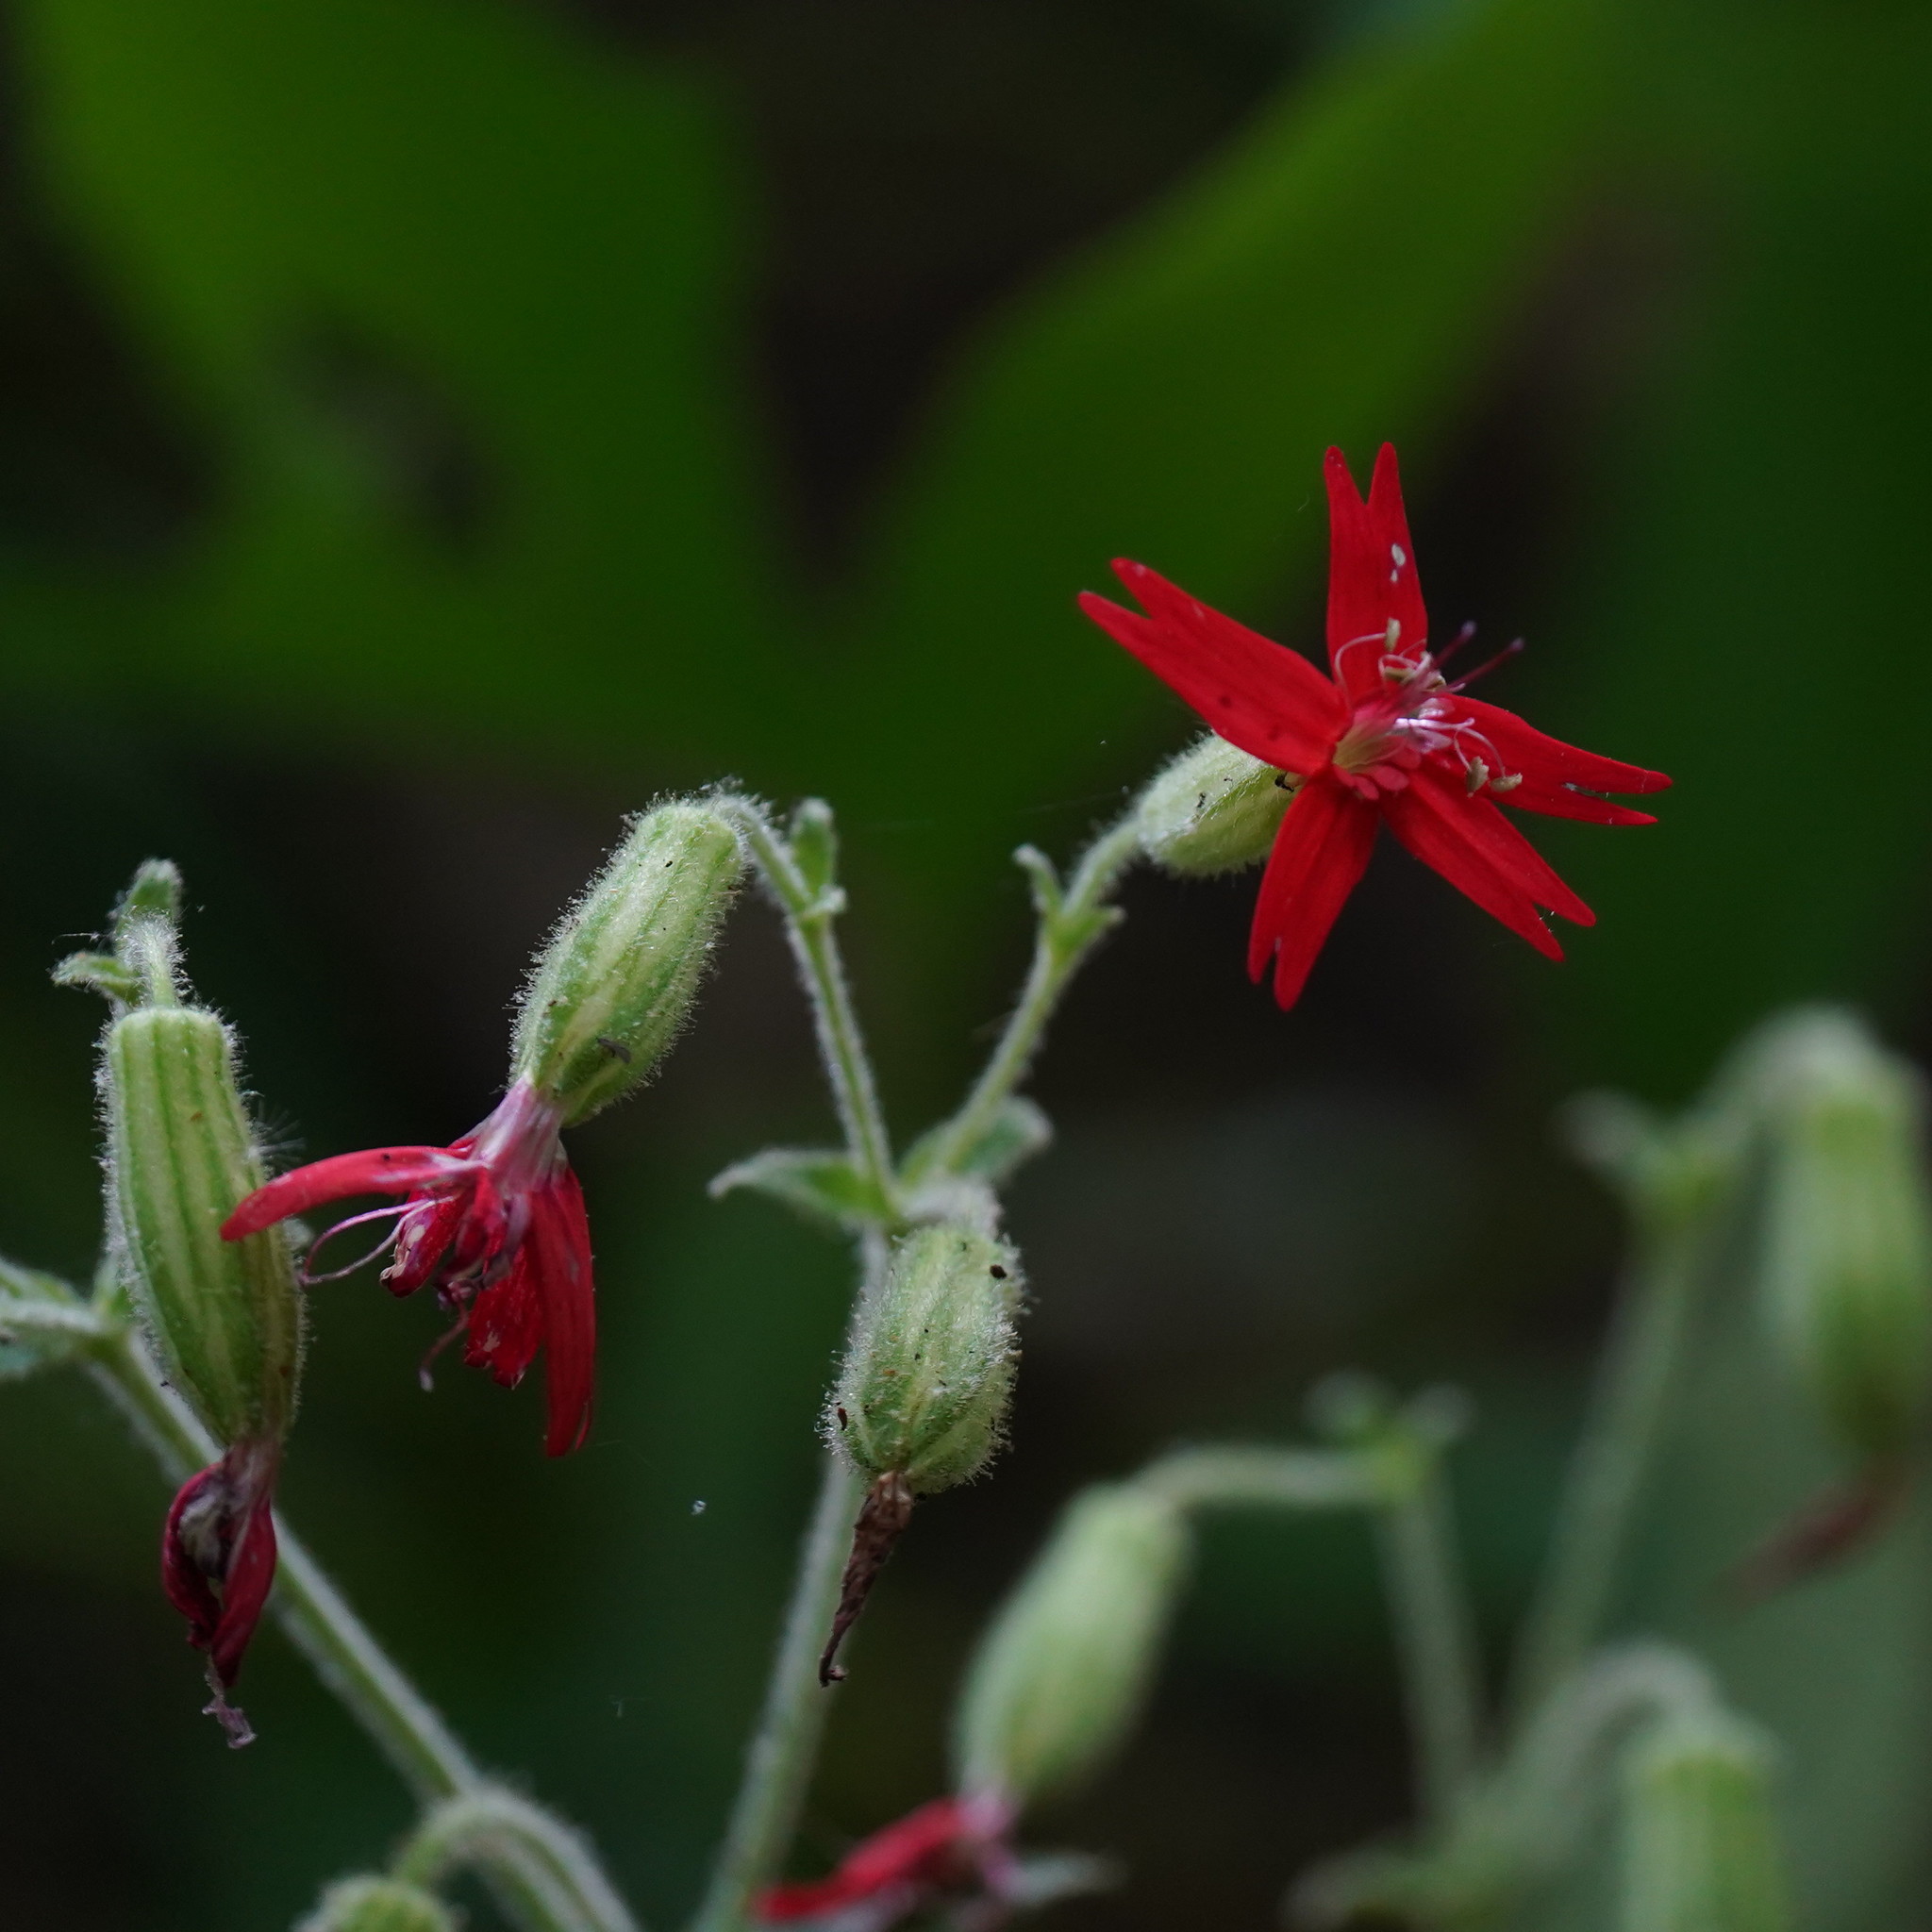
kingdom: Plantae
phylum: Tracheophyta
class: Magnoliopsida
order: Caryophyllales
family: Caryophyllaceae
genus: Silene
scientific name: Silene virginica
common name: Fire-pink
